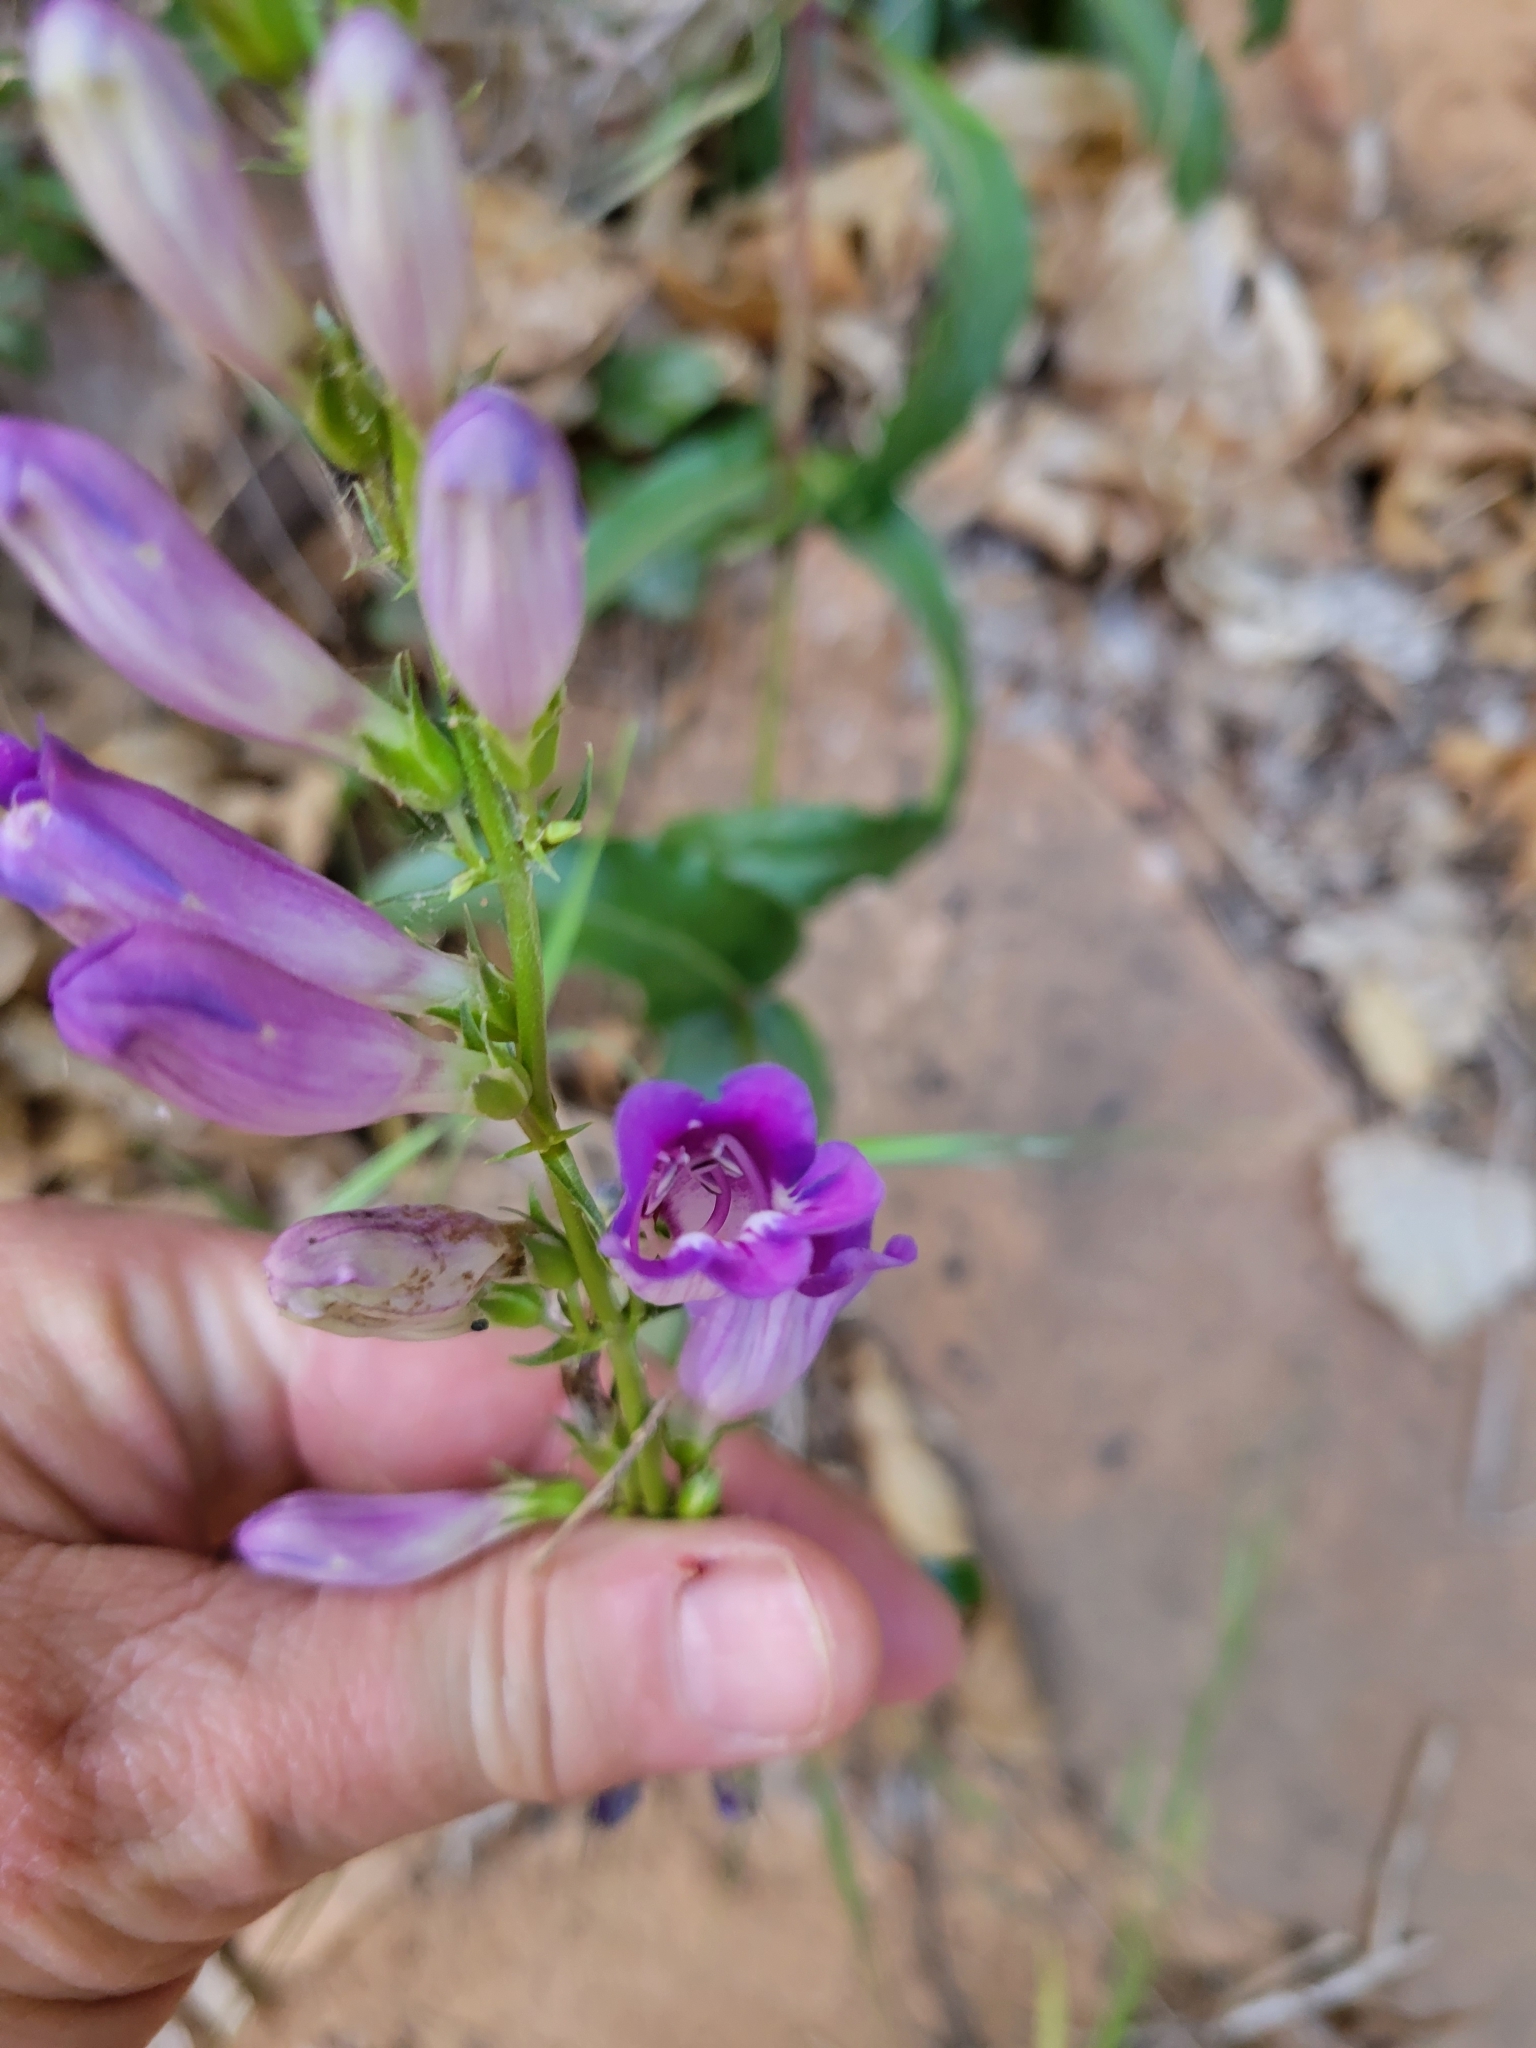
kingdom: Plantae
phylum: Tracheophyta
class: Magnoliopsida
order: Lamiales
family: Plantaginaceae
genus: Penstemon
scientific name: Penstemon laevis
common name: Smooth penstemon
